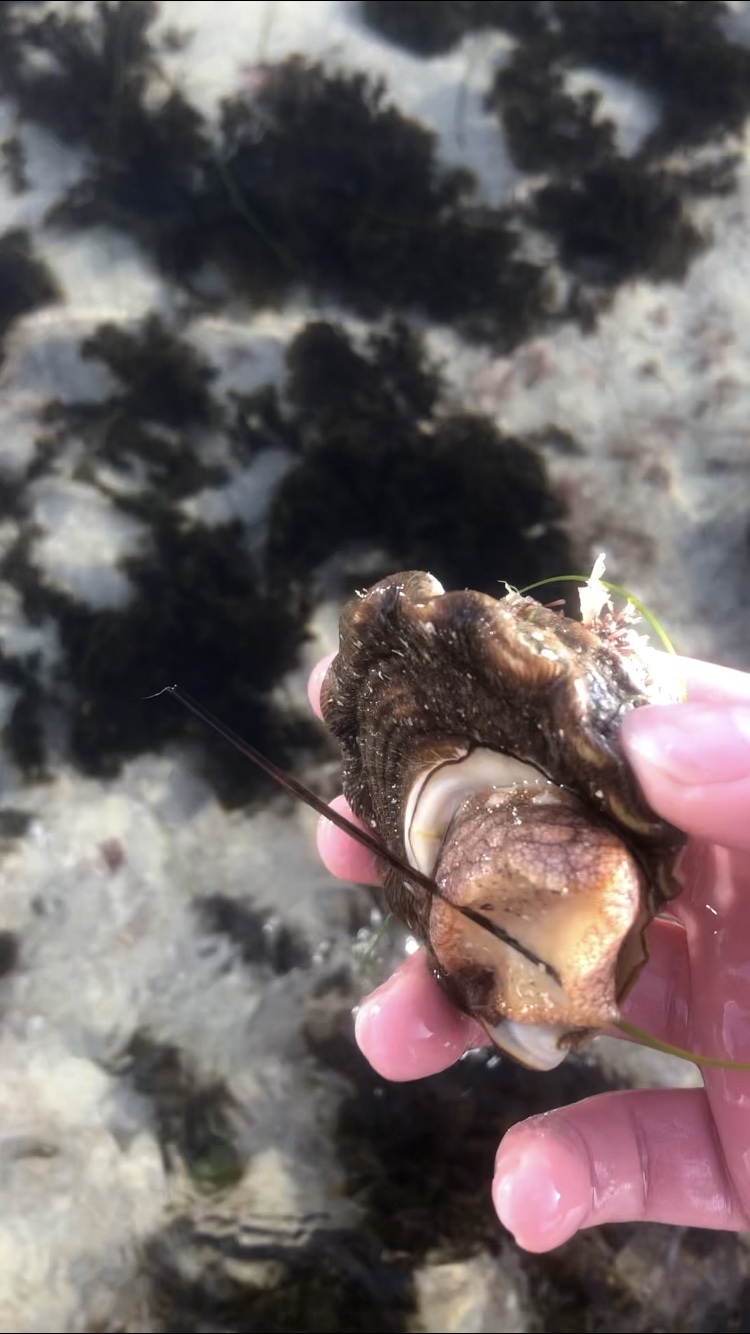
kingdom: Animalia
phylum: Mollusca
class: Gastropoda
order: Trochida
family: Turbinidae
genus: Megastraea
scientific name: Megastraea undosa
